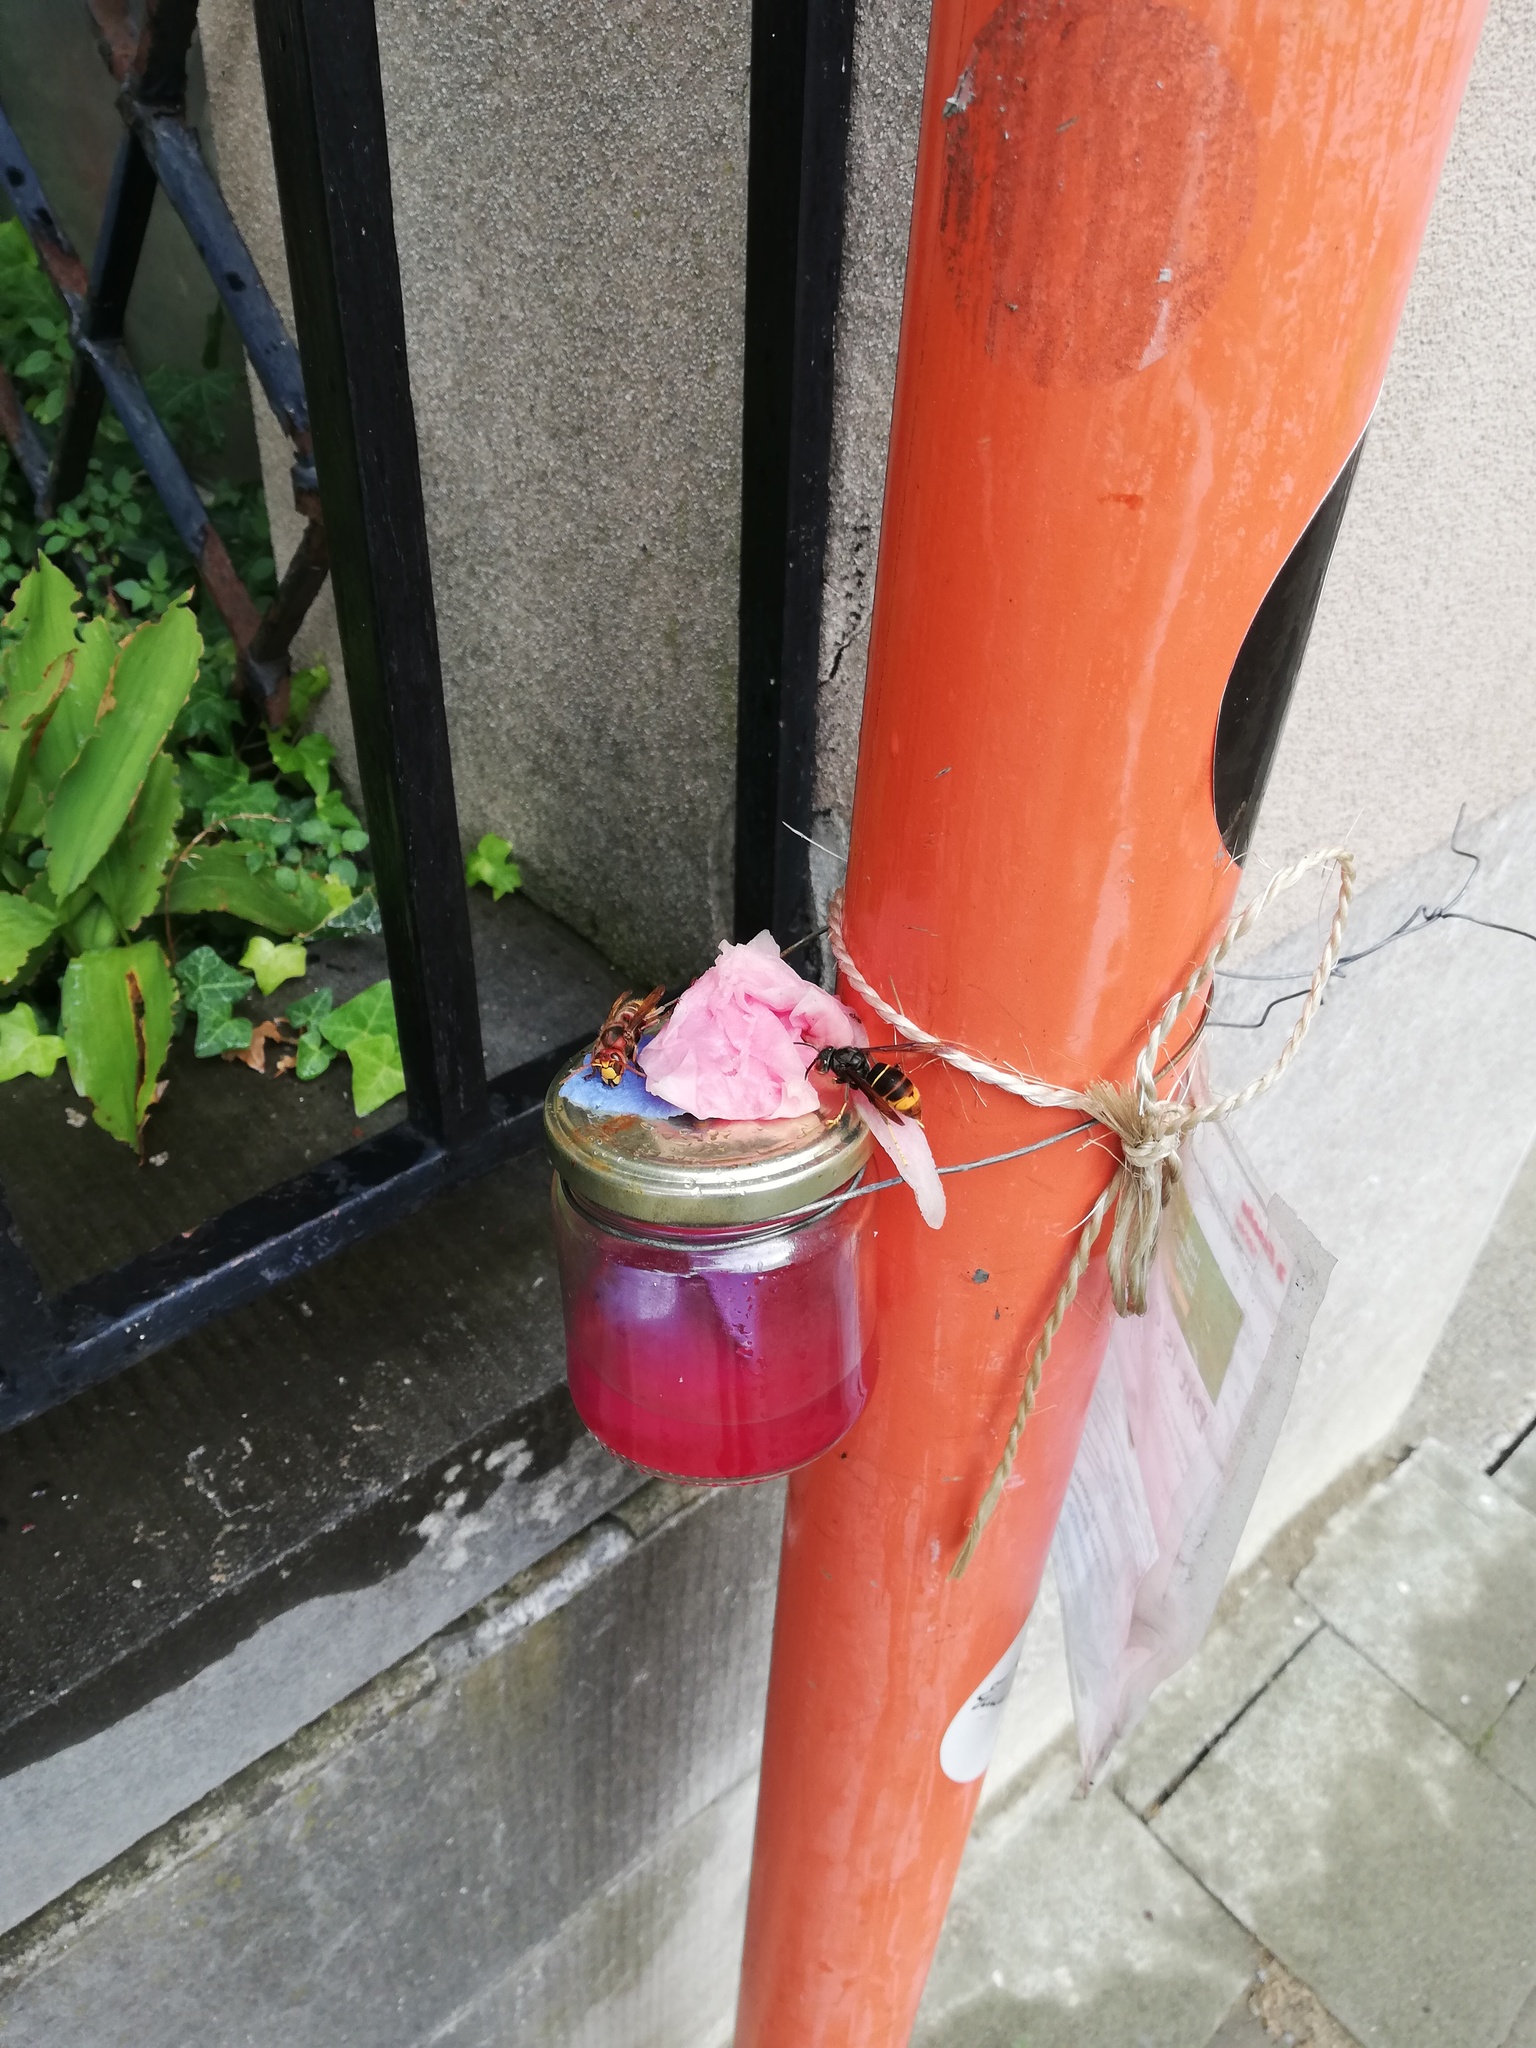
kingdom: Animalia
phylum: Arthropoda
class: Insecta
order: Hymenoptera
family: Vespidae
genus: Vespa
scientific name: Vespa velutina
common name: Asian hornet
